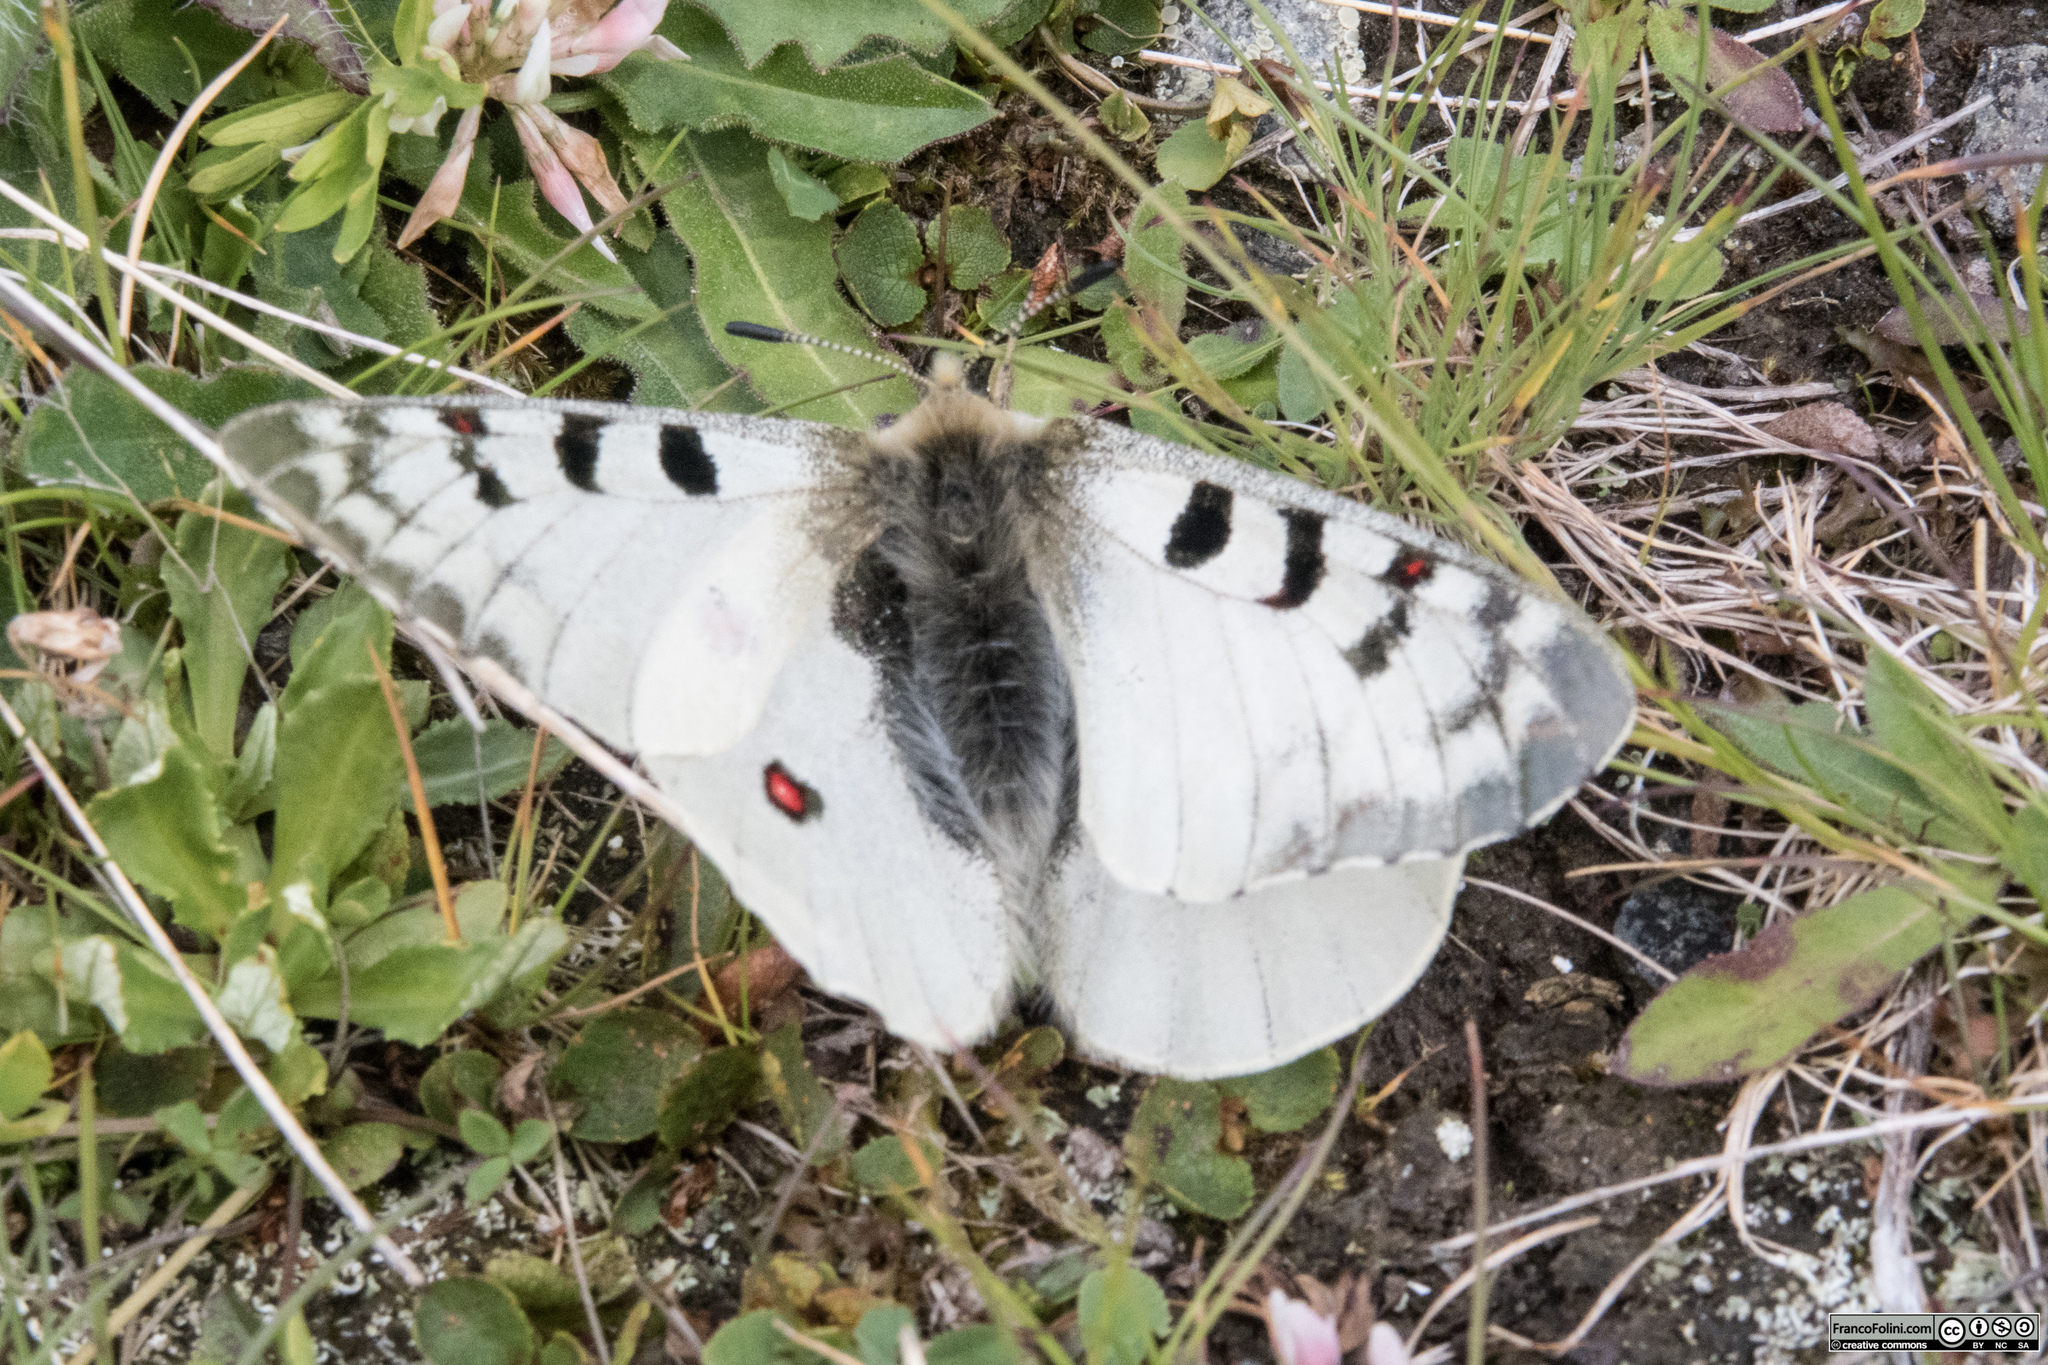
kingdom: Animalia
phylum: Arthropoda
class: Insecta
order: Lepidoptera
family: Papilionidae
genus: Parnassius
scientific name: Parnassius phoebus
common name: Small apollo
